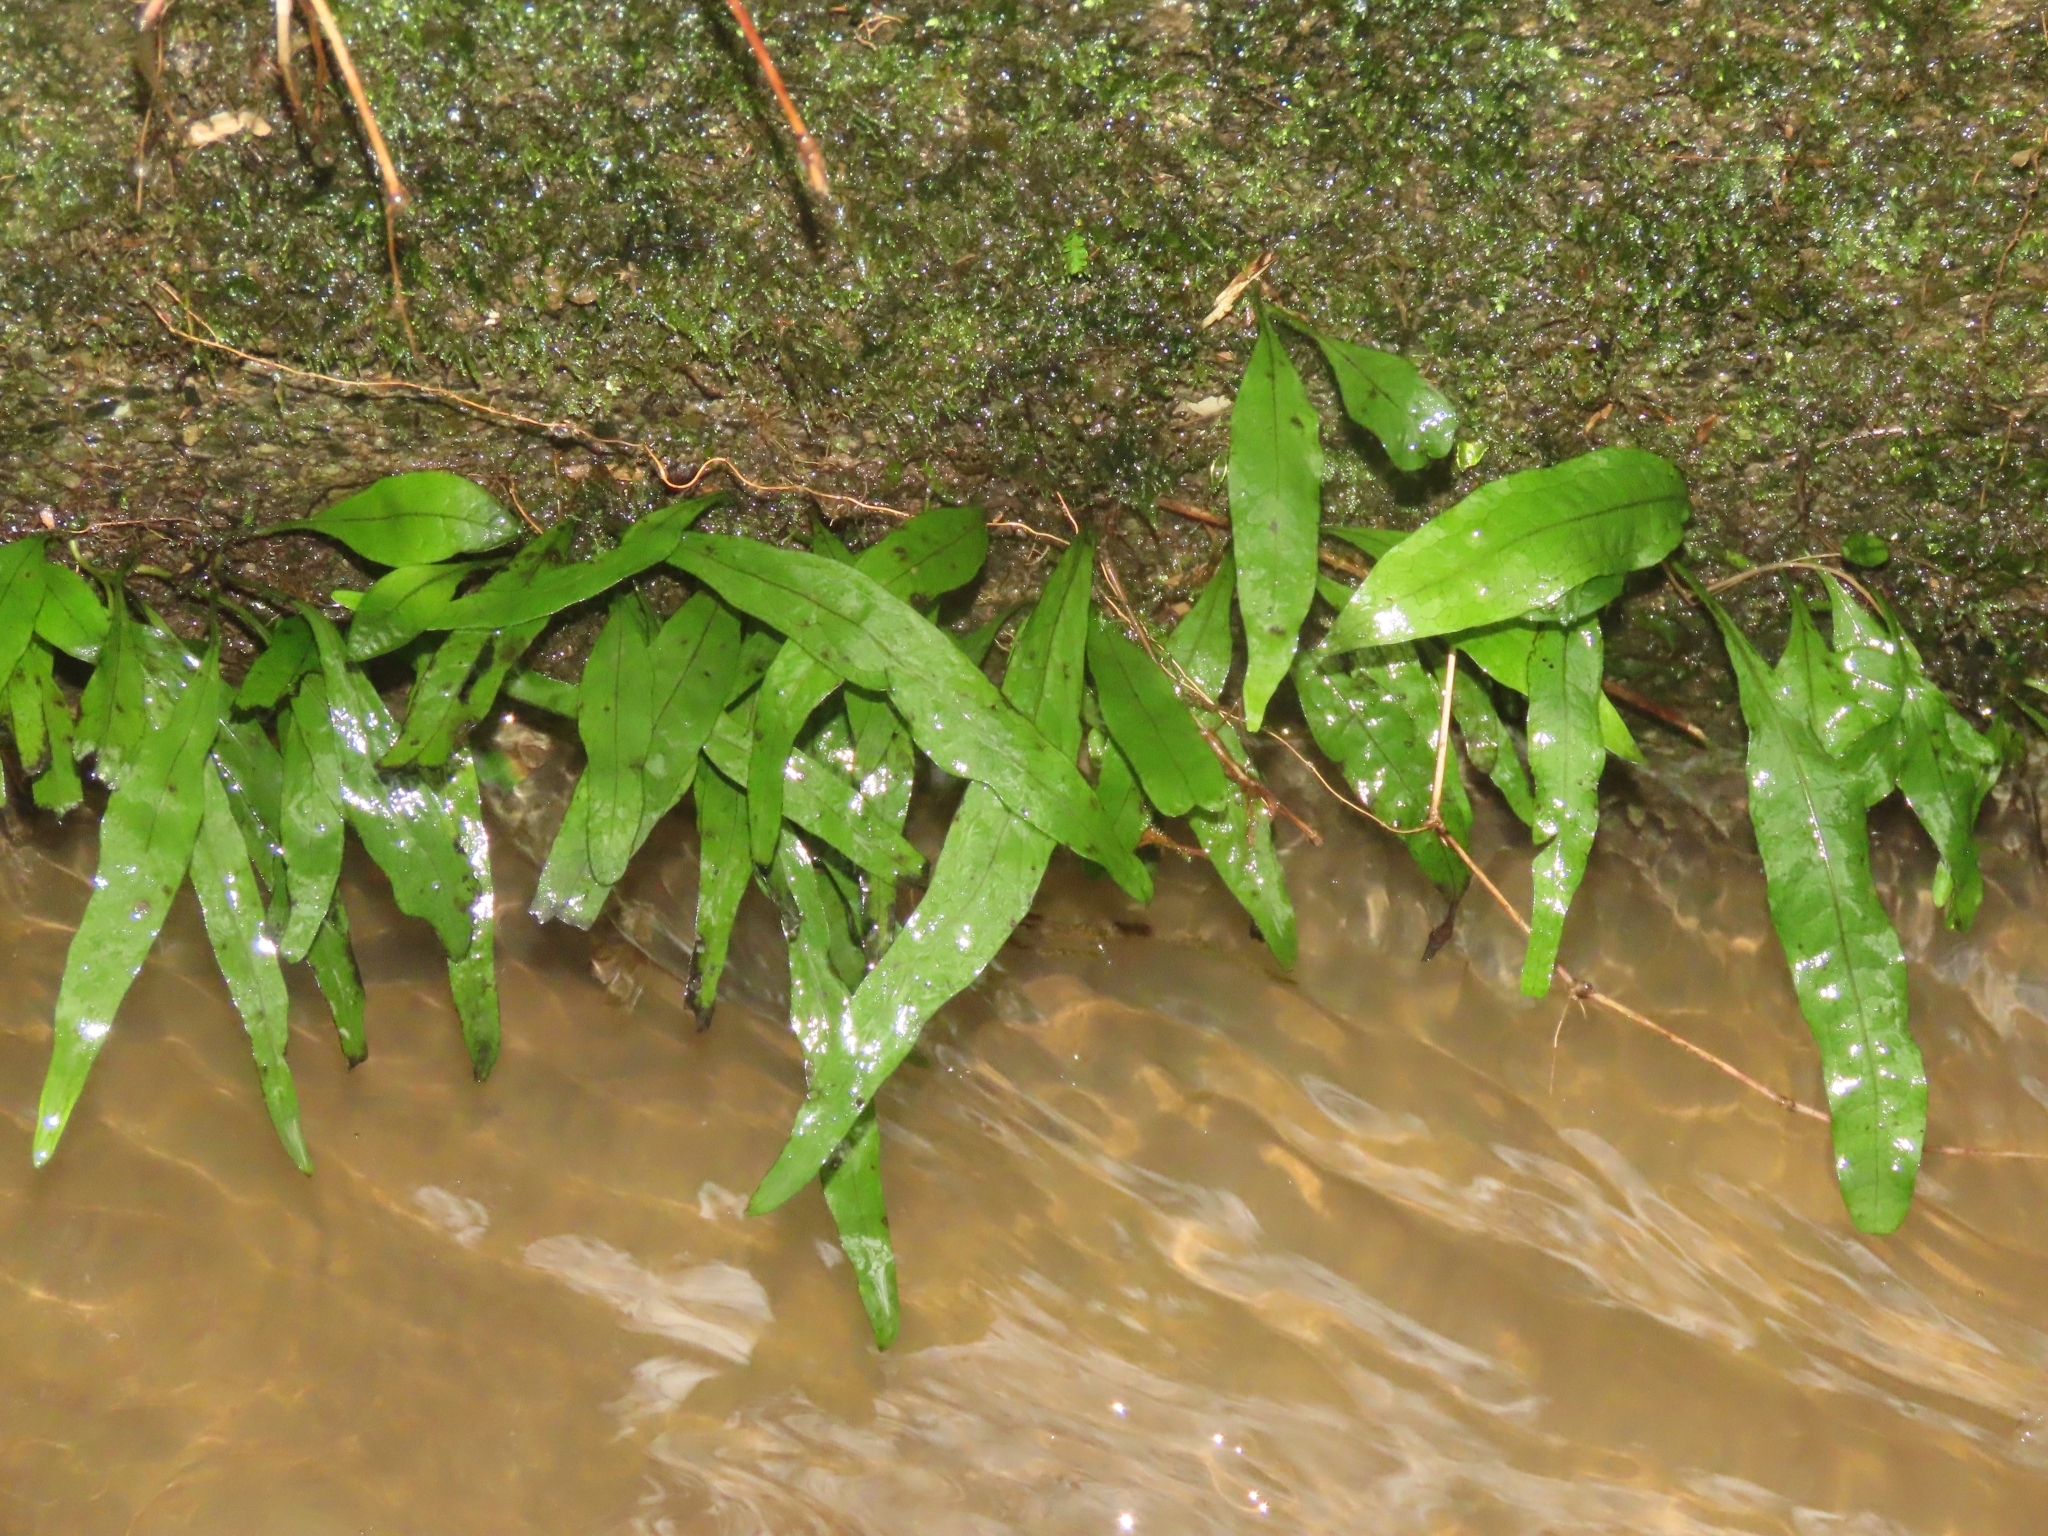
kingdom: Plantae
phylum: Tracheophyta
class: Polypodiopsida
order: Polypodiales
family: Polypodiaceae
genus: Leptochilus
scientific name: Leptochilus pteropus
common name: Java fern
